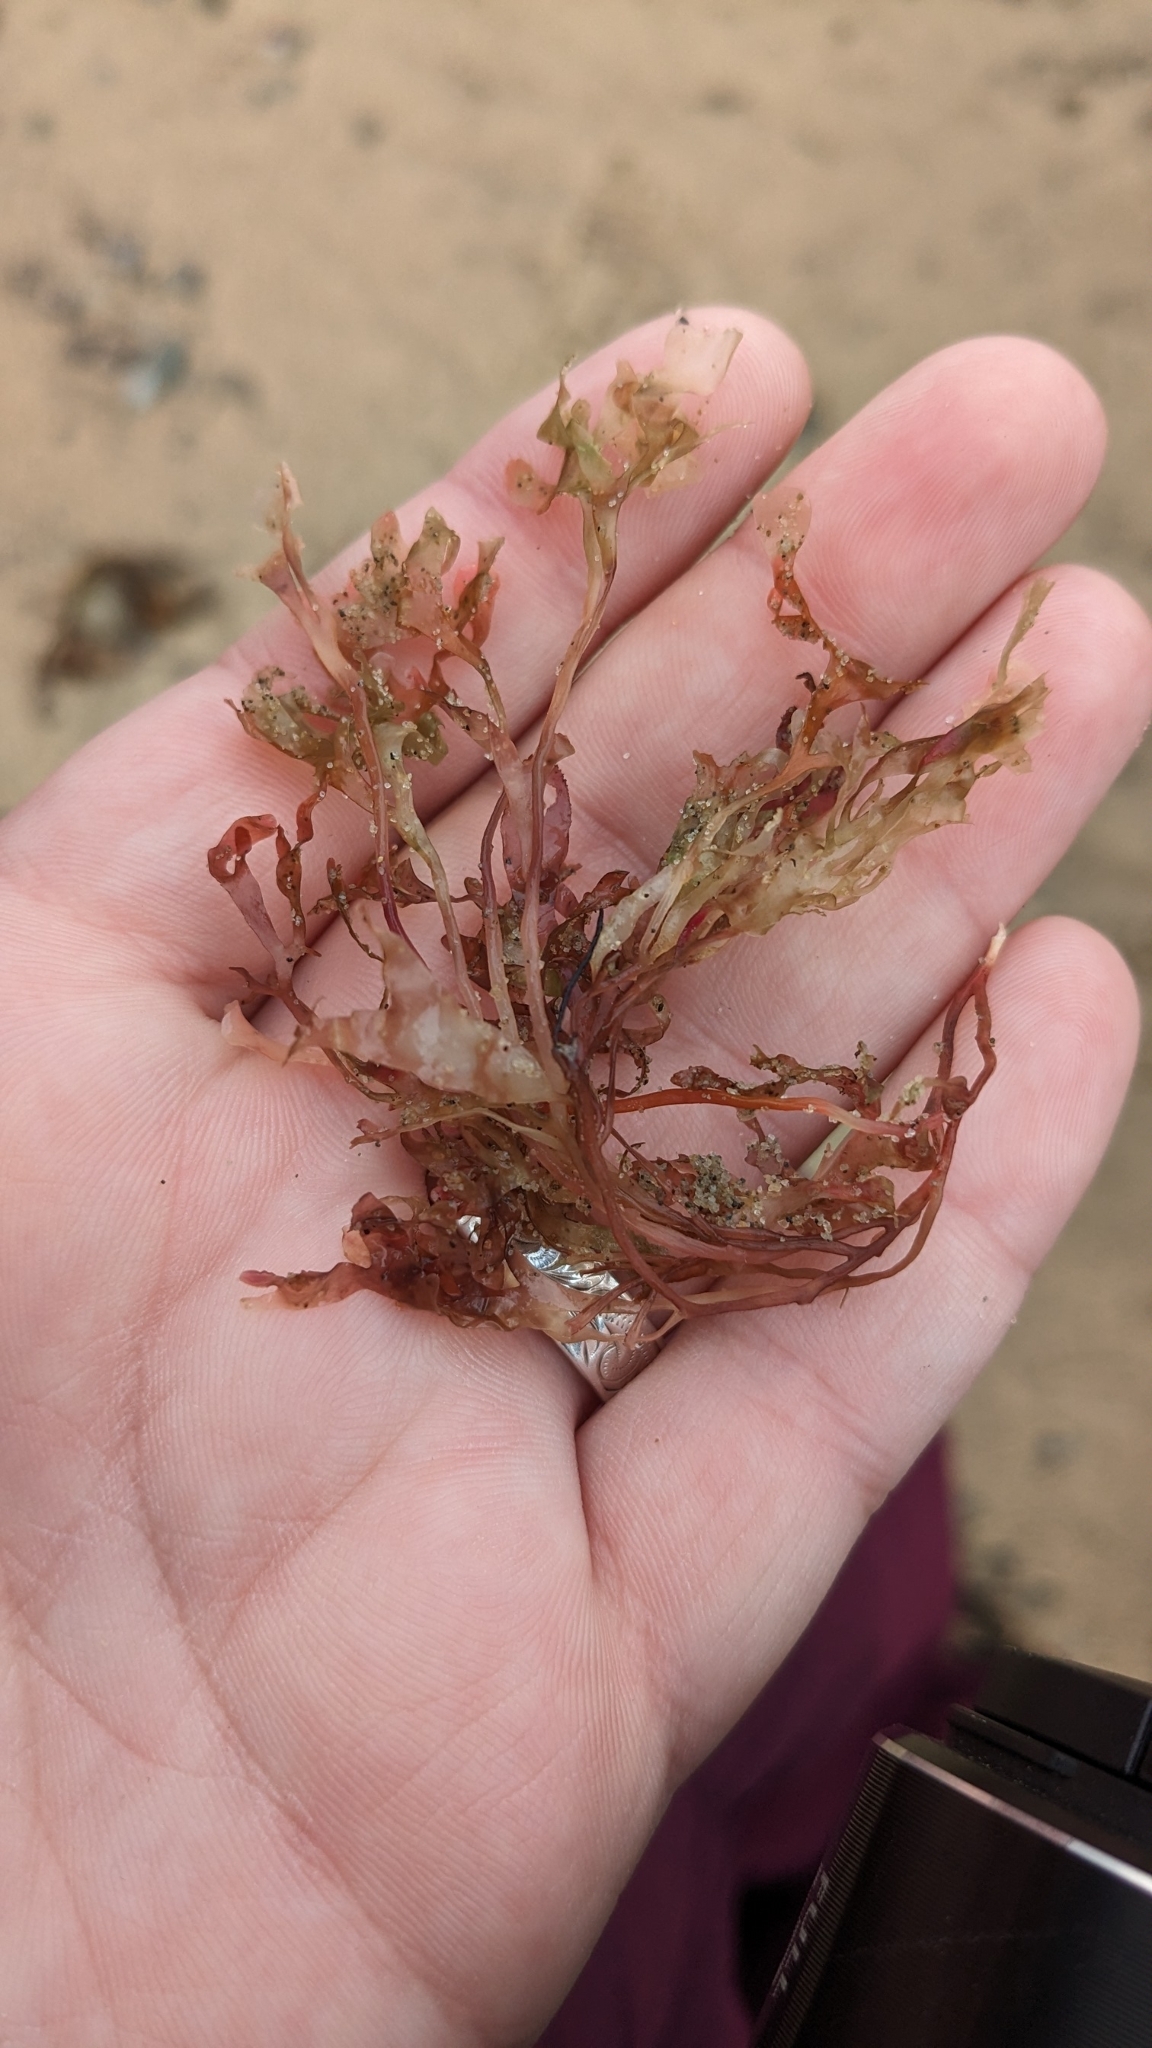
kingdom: Plantae
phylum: Rhodophyta
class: Florideophyceae
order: Gigartinales
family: Gigartinaceae
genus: Chondrus
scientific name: Chondrus crispus
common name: Carrageen
